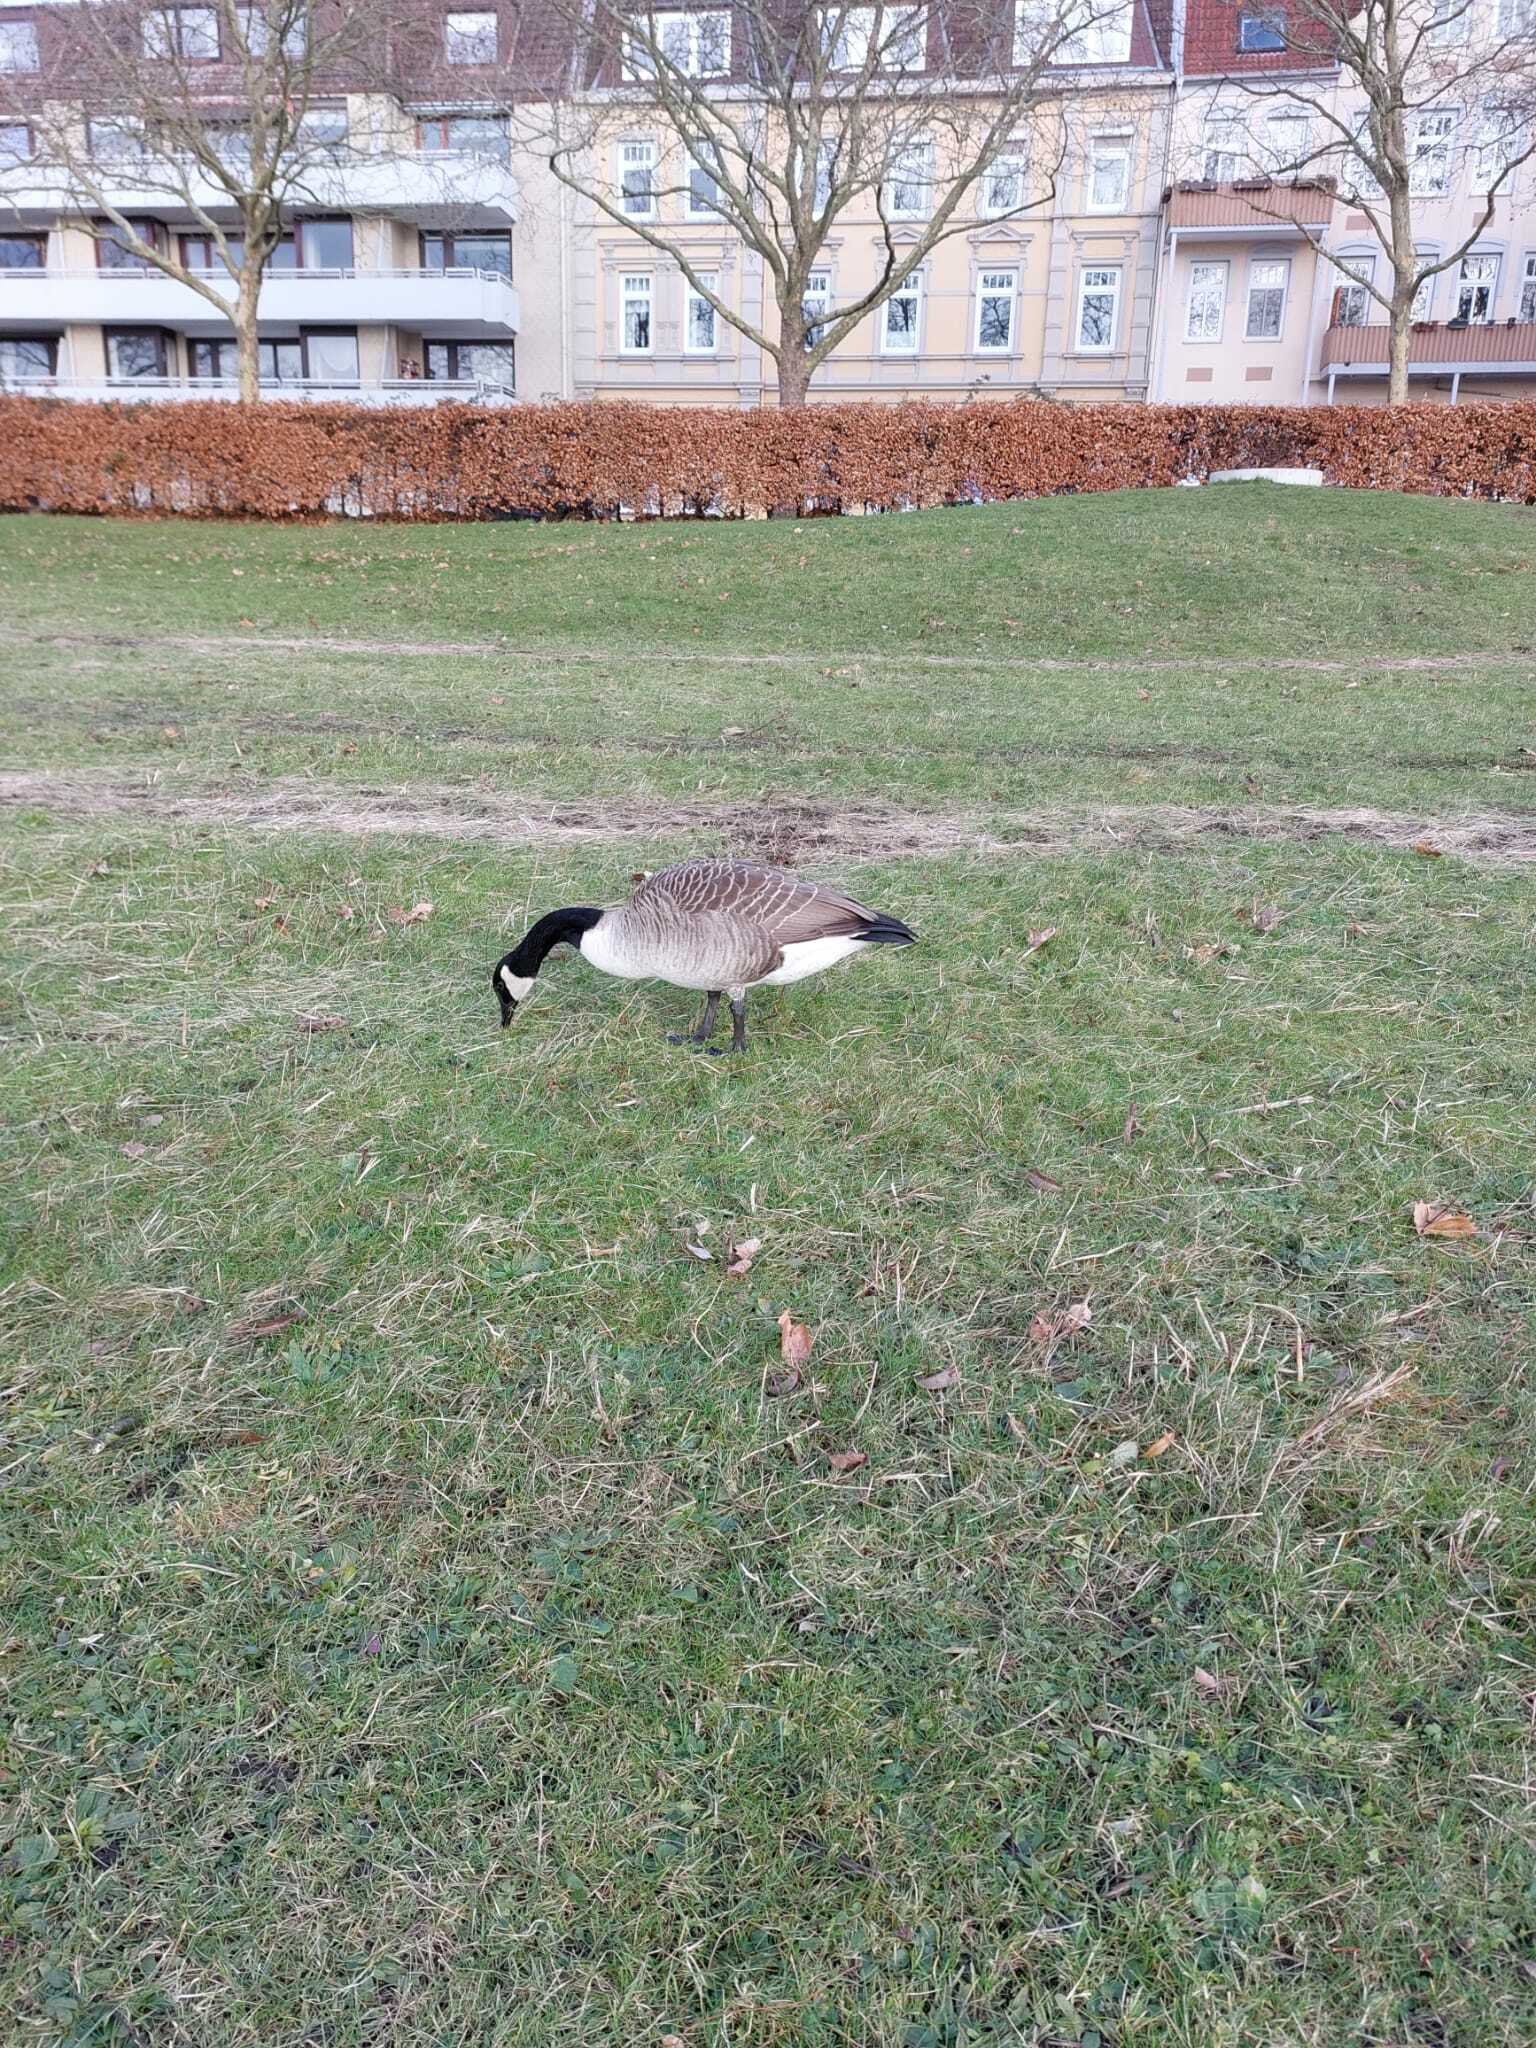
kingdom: Animalia
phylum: Chordata
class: Aves
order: Anseriformes
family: Anatidae
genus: Branta
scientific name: Branta canadensis
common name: Canada goose
